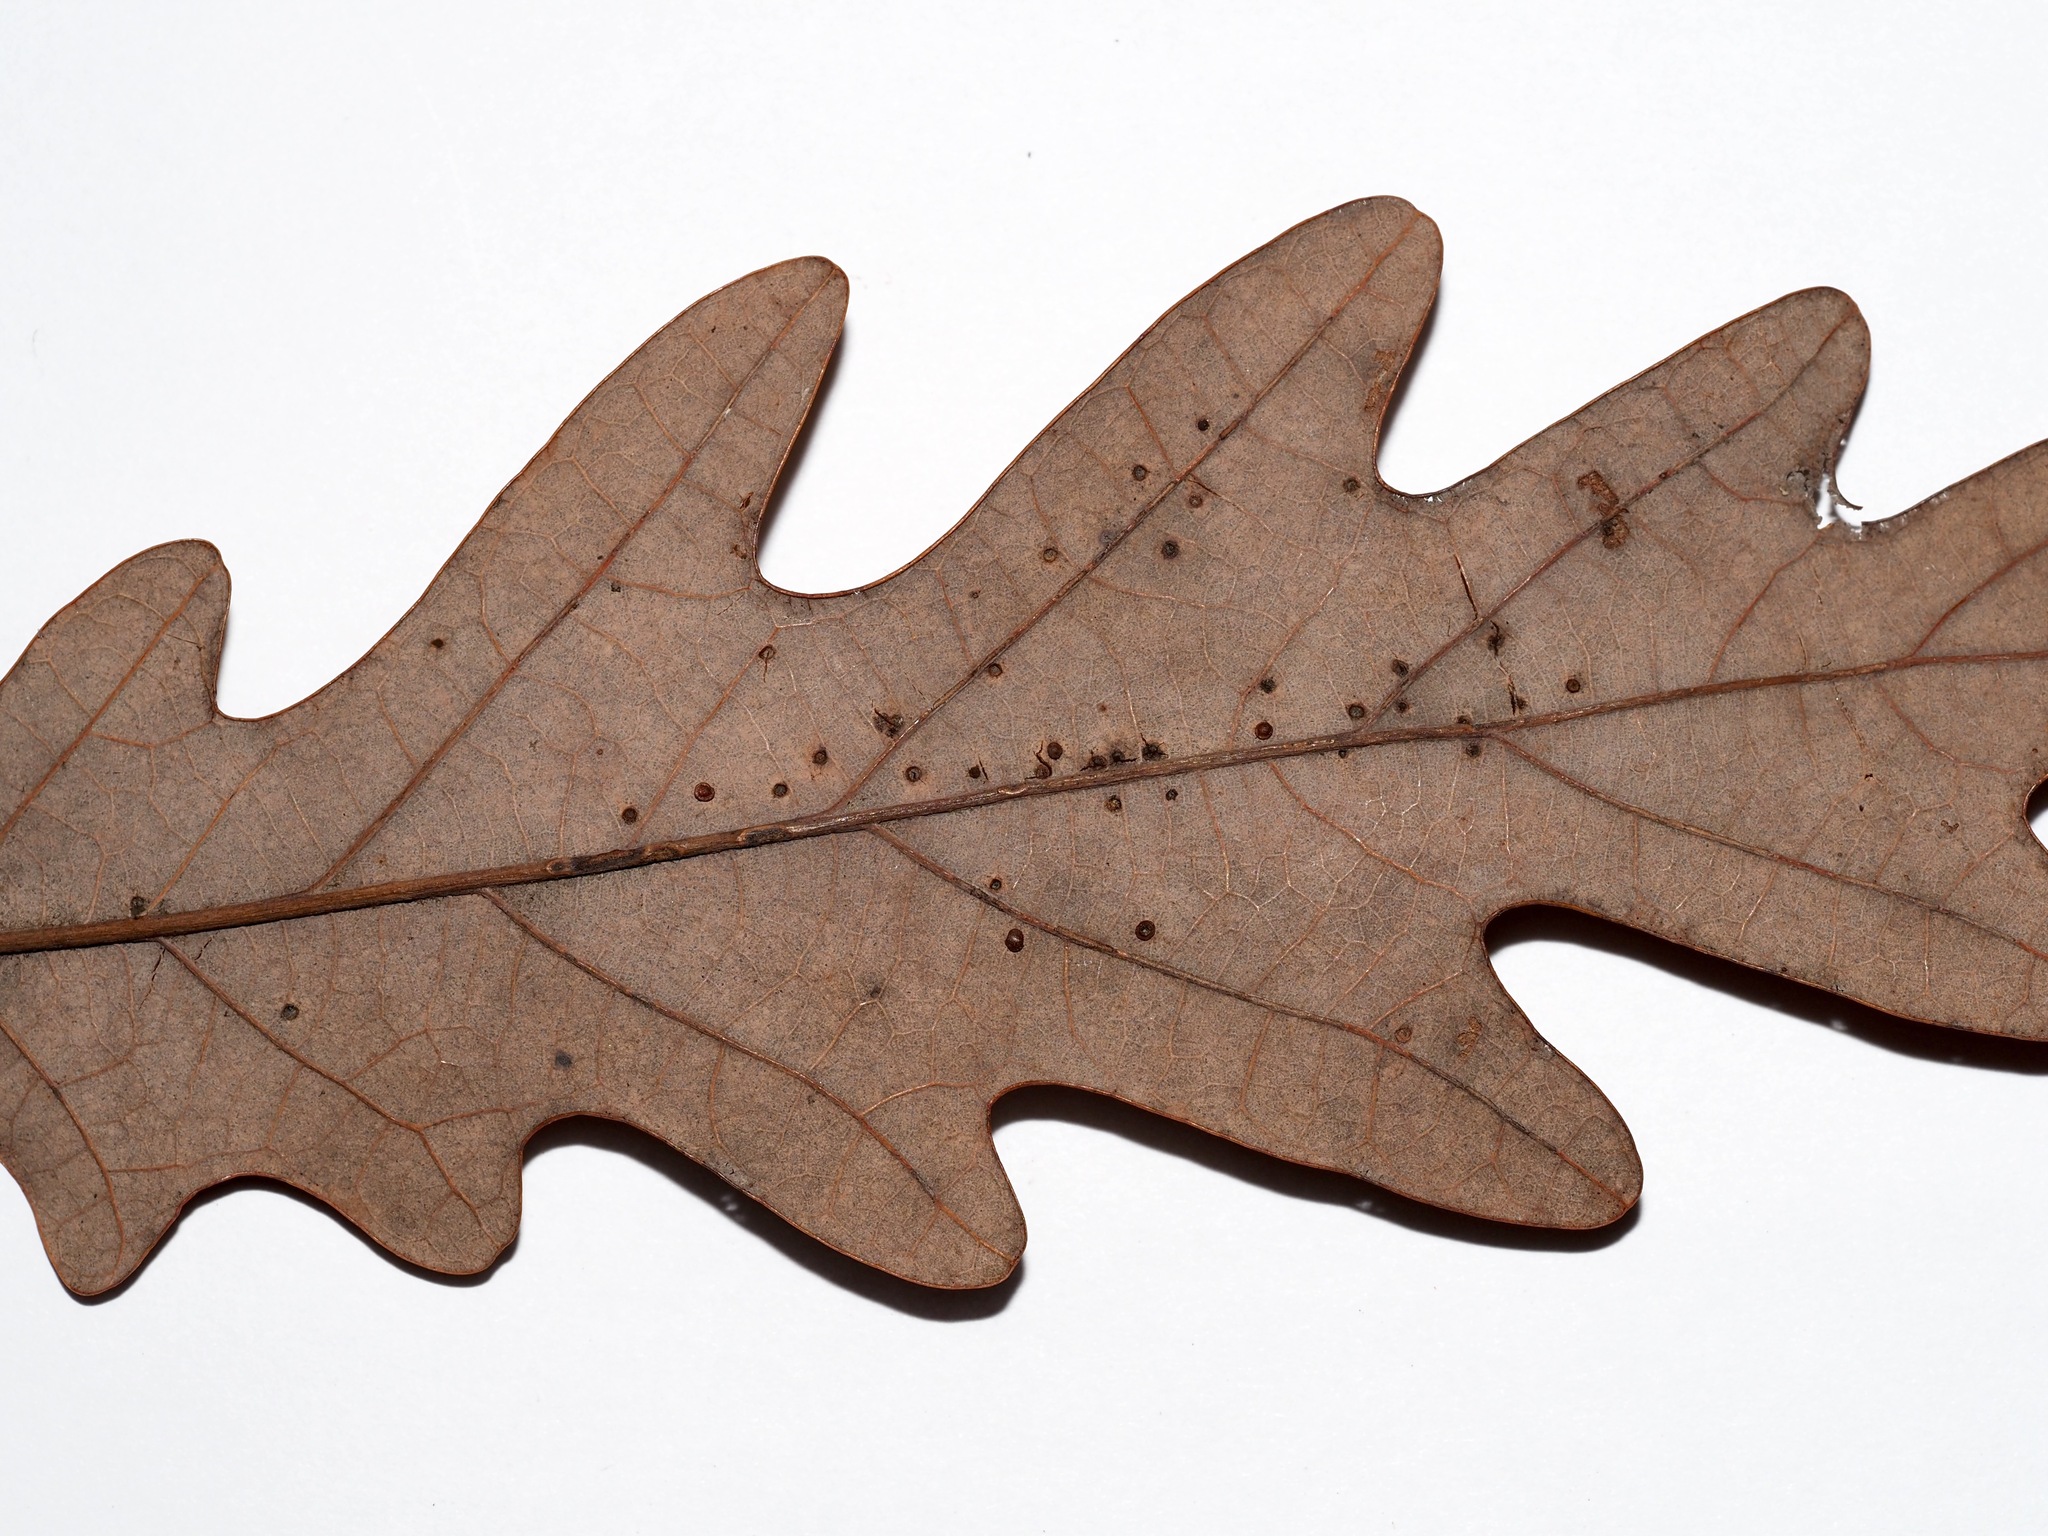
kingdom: Animalia
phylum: Arthropoda
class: Insecta
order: Hymenoptera
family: Cynipidae
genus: Neuroterus
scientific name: Neuroterus
